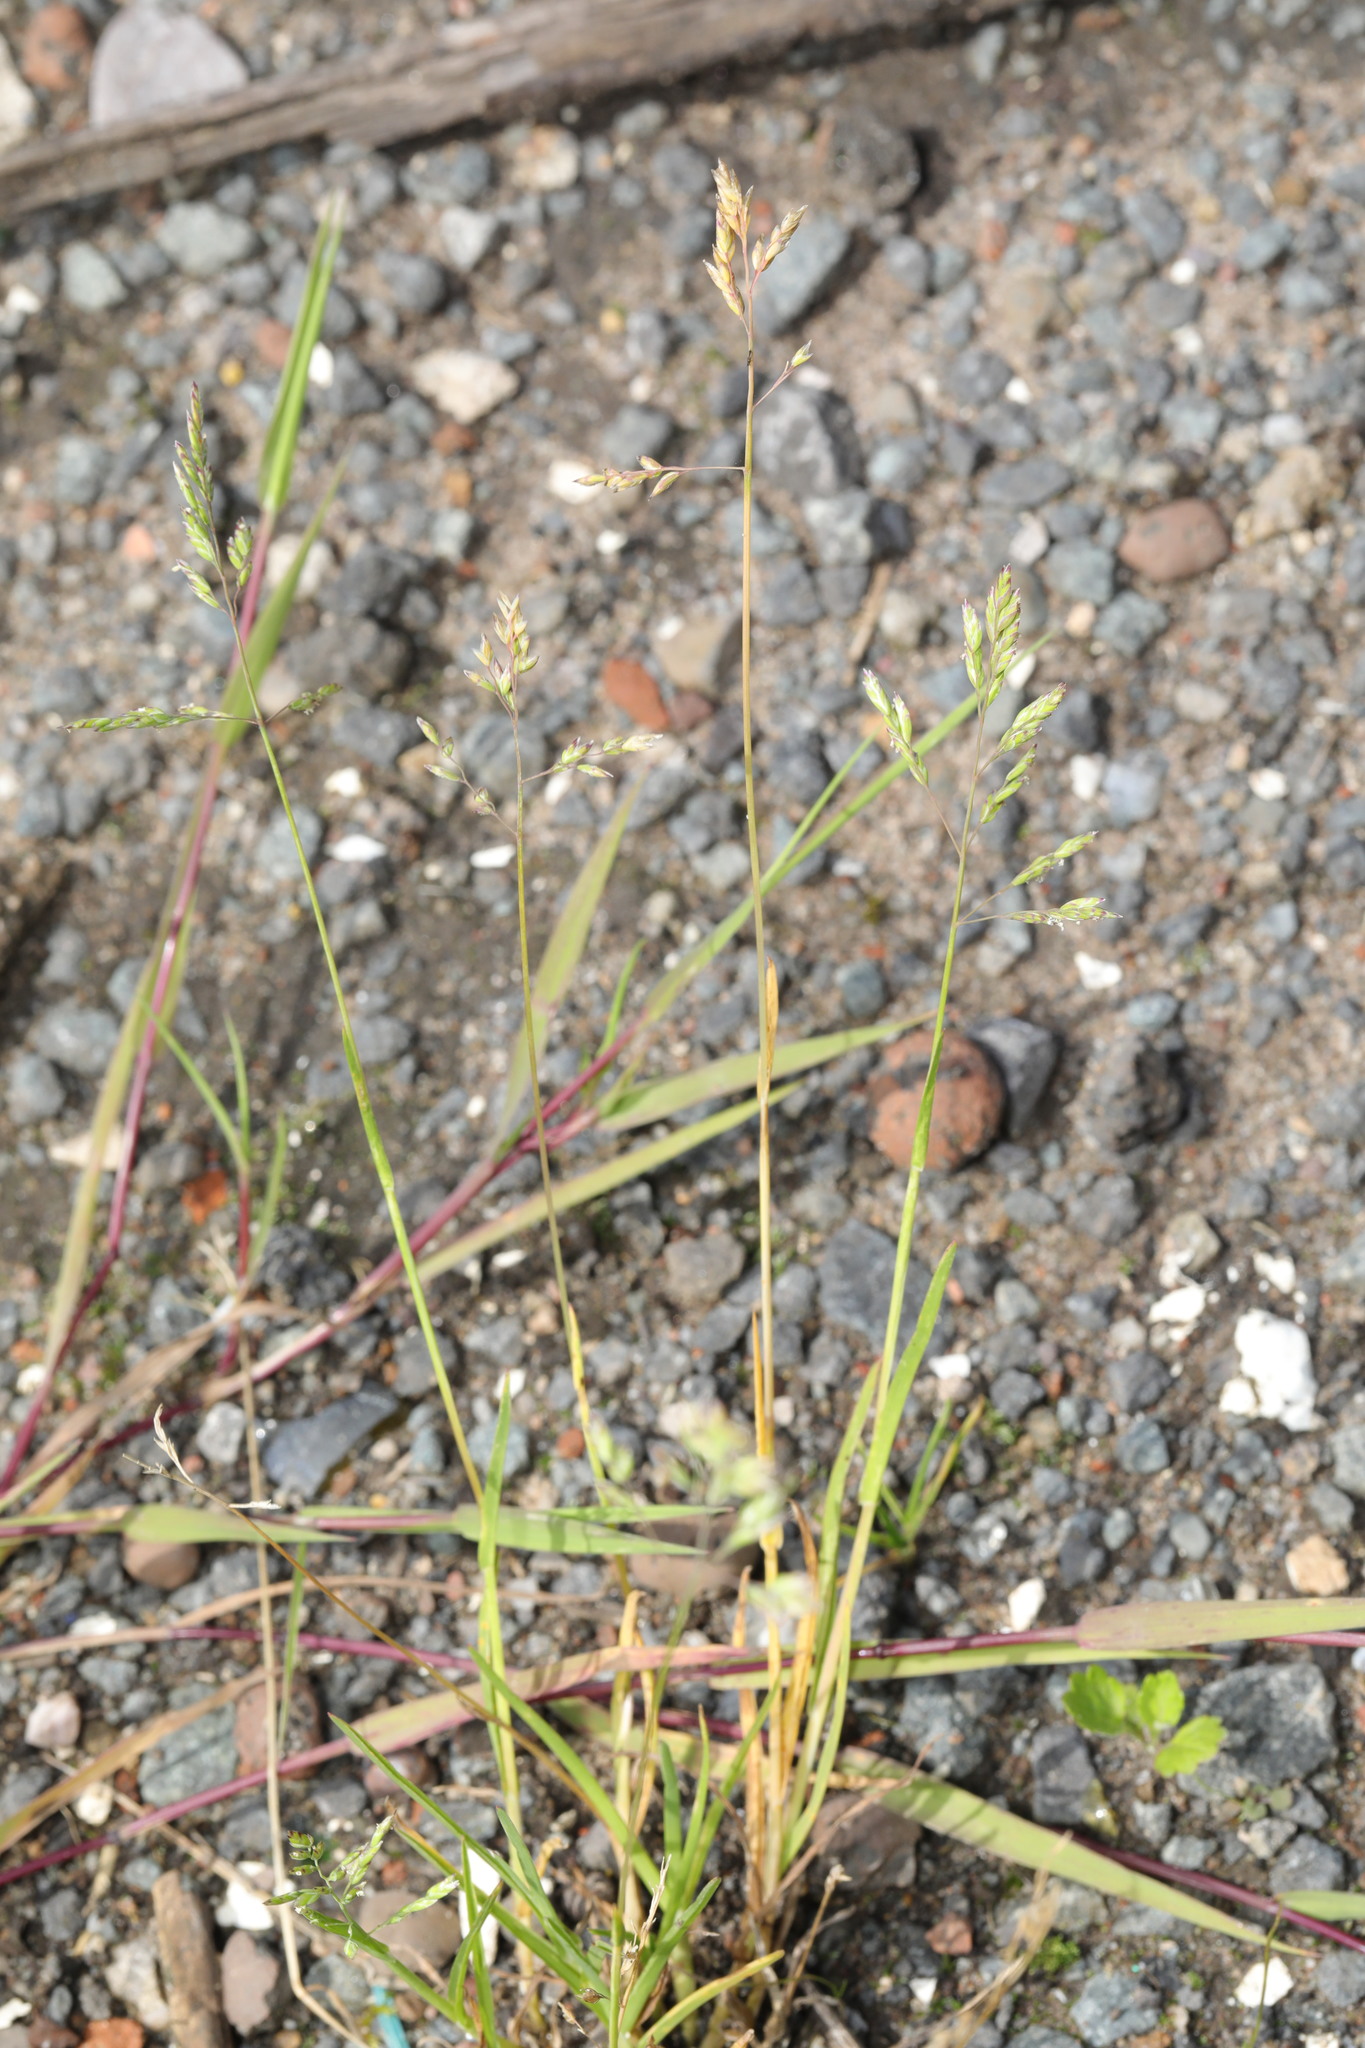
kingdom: Plantae
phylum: Tracheophyta
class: Liliopsida
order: Poales
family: Poaceae
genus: Poa
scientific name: Poa annua
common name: Annual bluegrass
